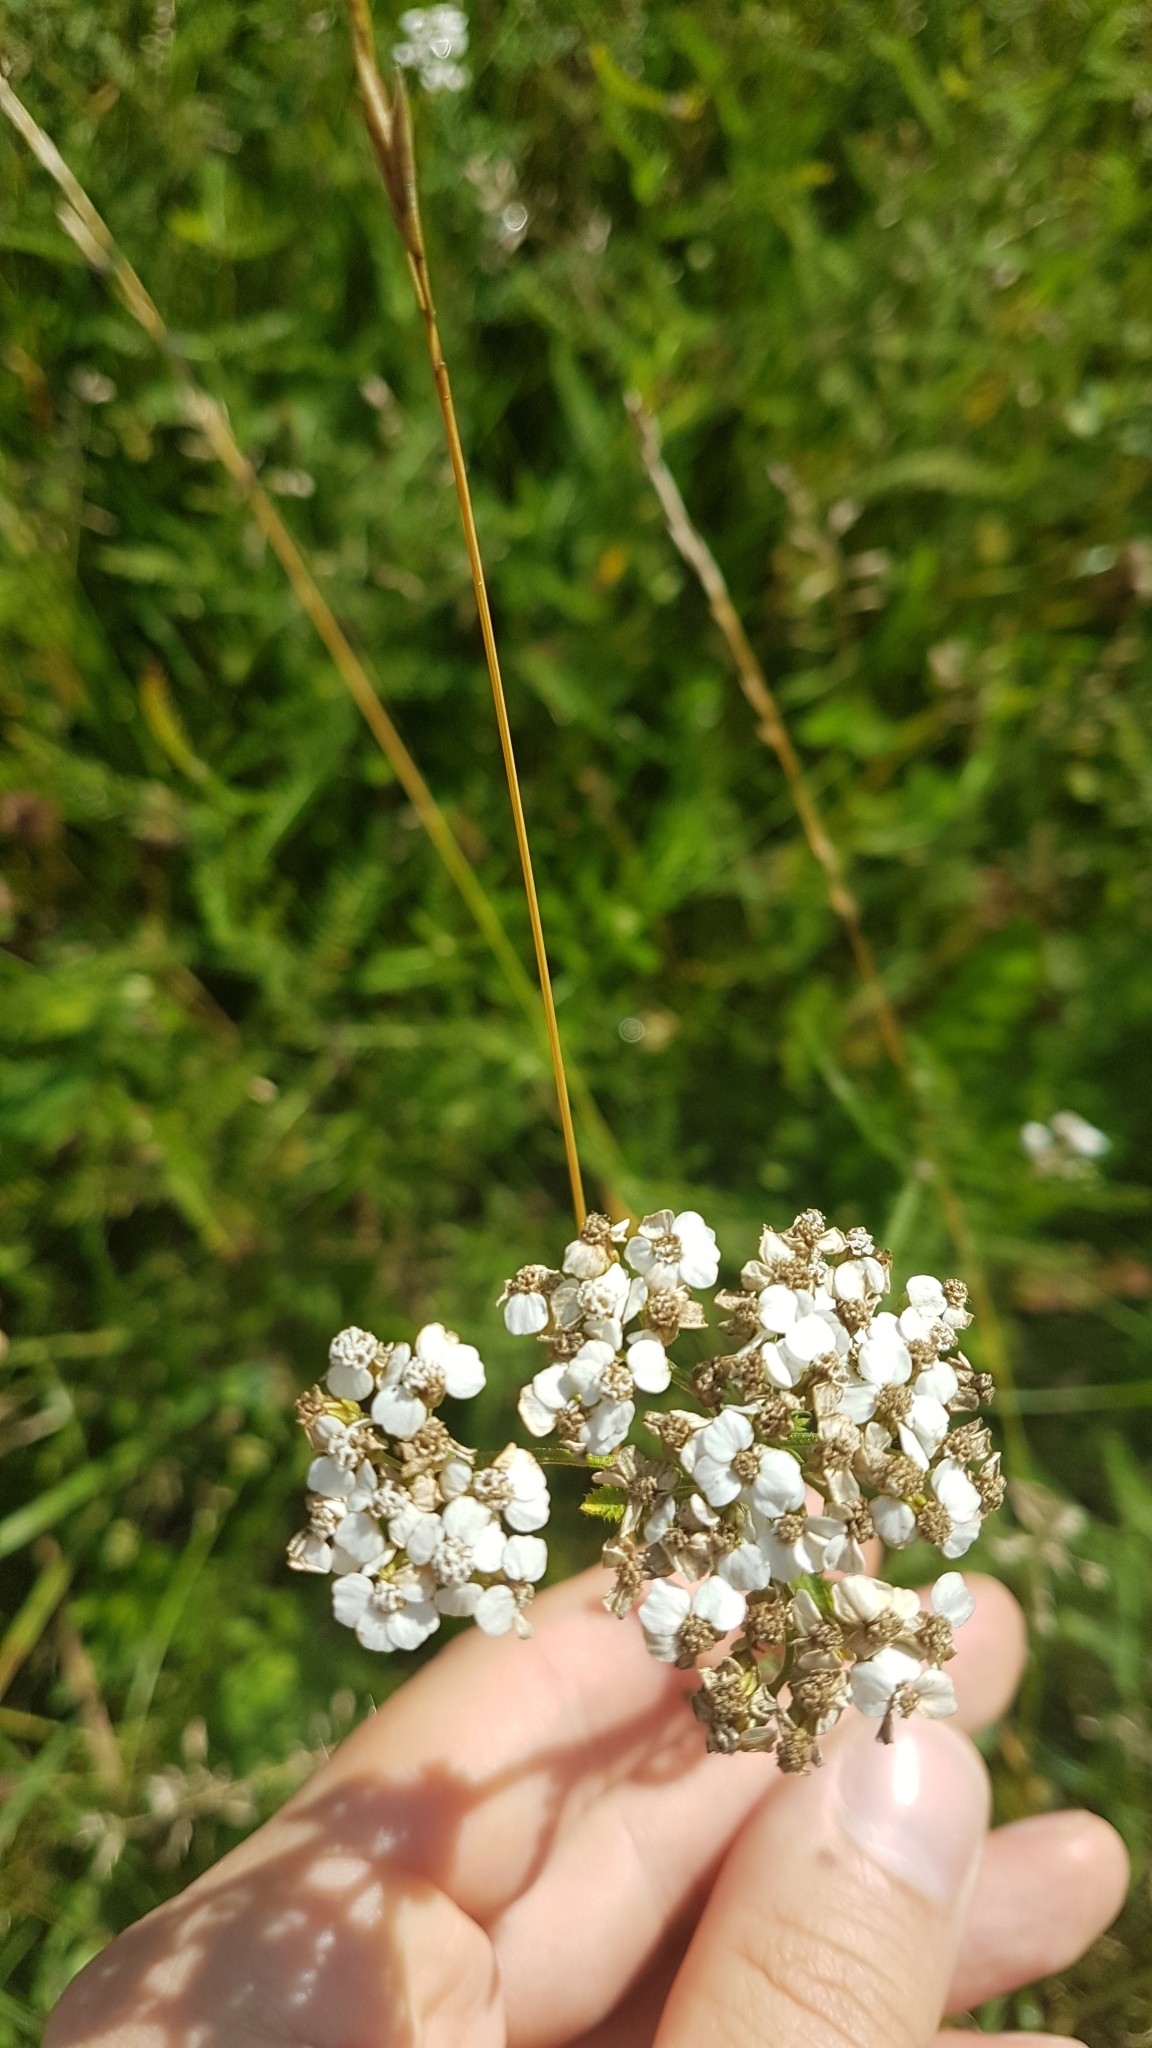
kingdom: Plantae
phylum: Tracheophyta
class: Magnoliopsida
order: Asterales
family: Asteraceae
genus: Achillea
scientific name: Achillea millefolium
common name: Yarrow
